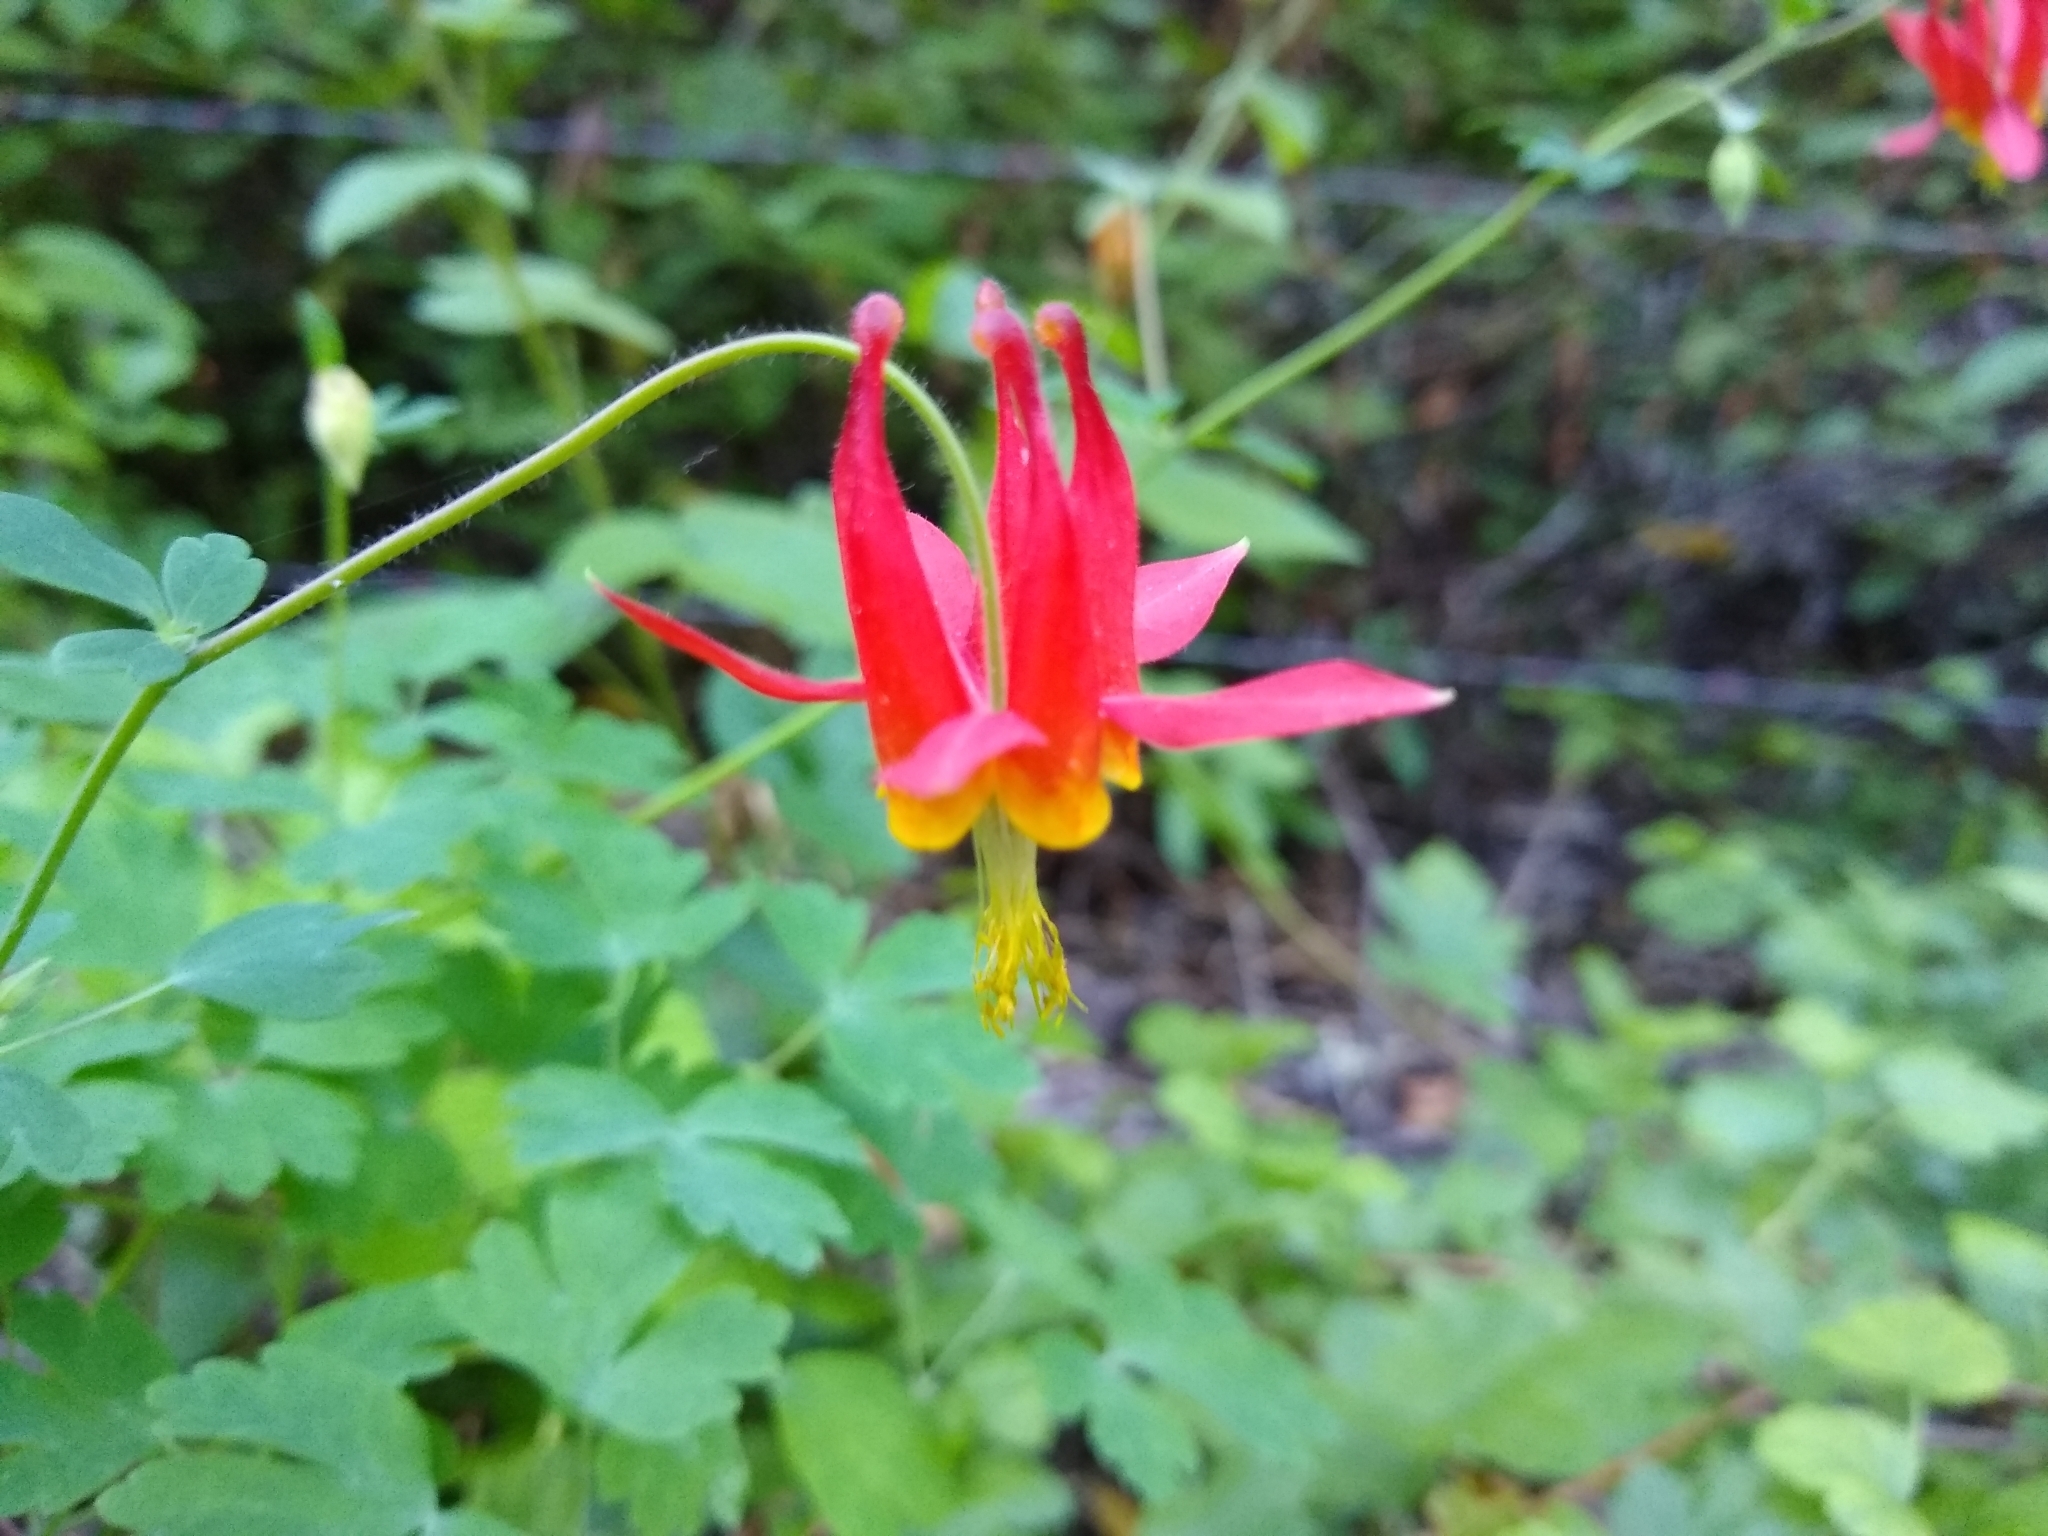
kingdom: Plantae
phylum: Tracheophyta
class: Magnoliopsida
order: Ranunculales
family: Ranunculaceae
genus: Aquilegia
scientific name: Aquilegia formosa
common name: Sitka columbine
